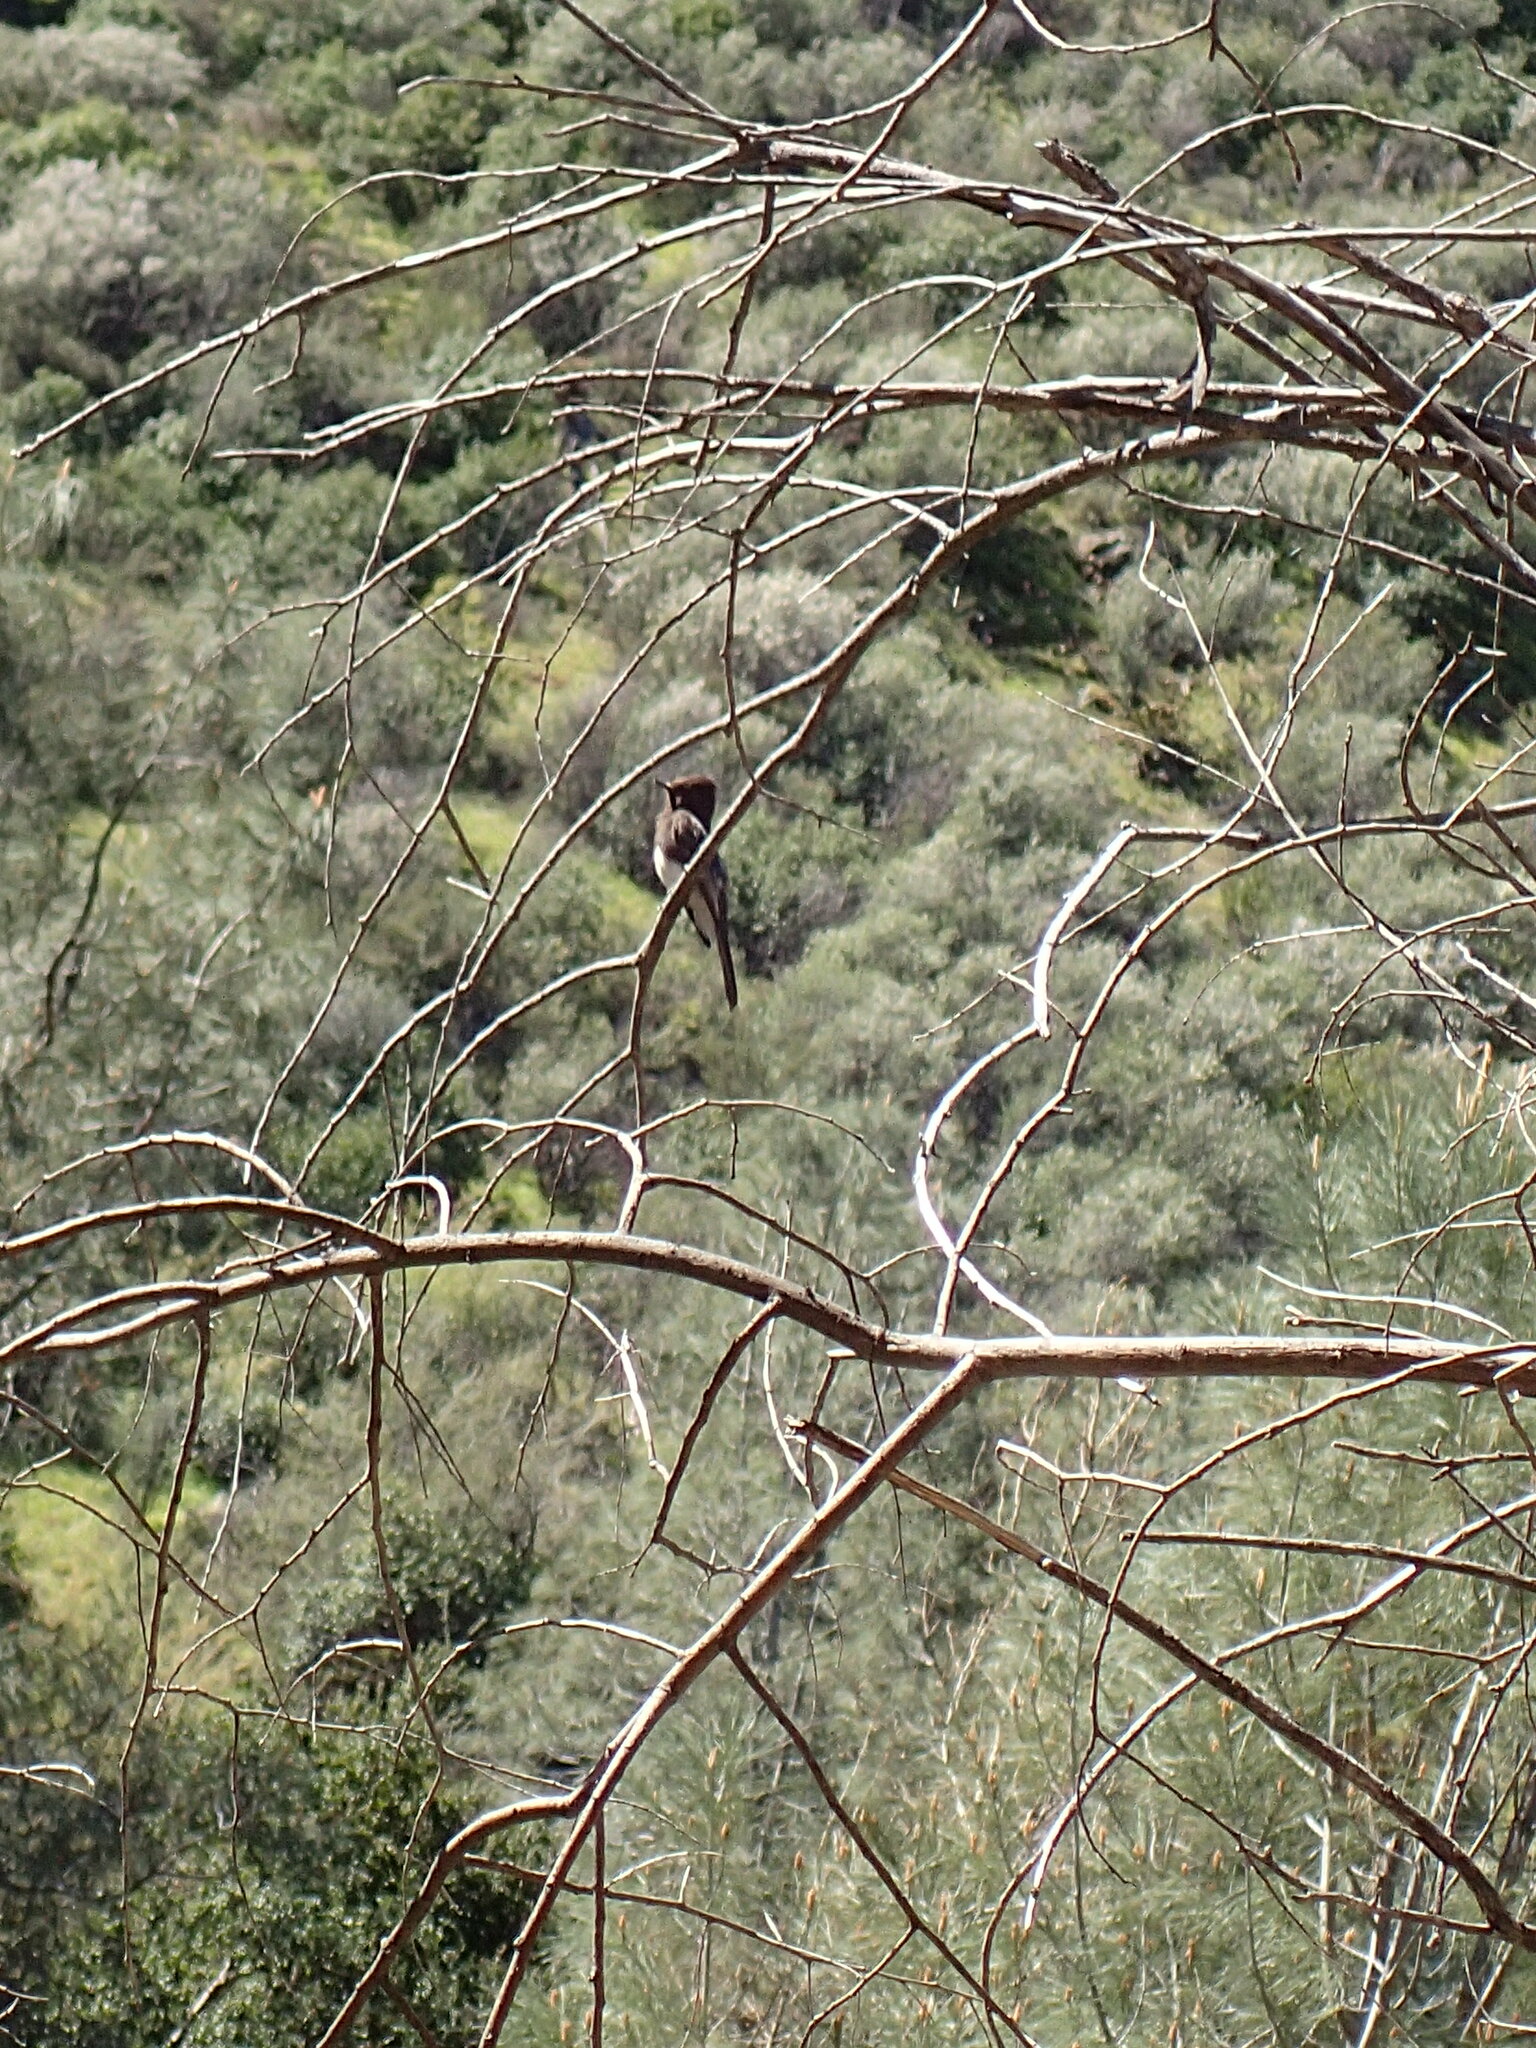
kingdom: Animalia
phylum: Chordata
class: Aves
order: Passeriformes
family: Tyrannidae
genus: Sayornis
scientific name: Sayornis nigricans
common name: Black phoebe
